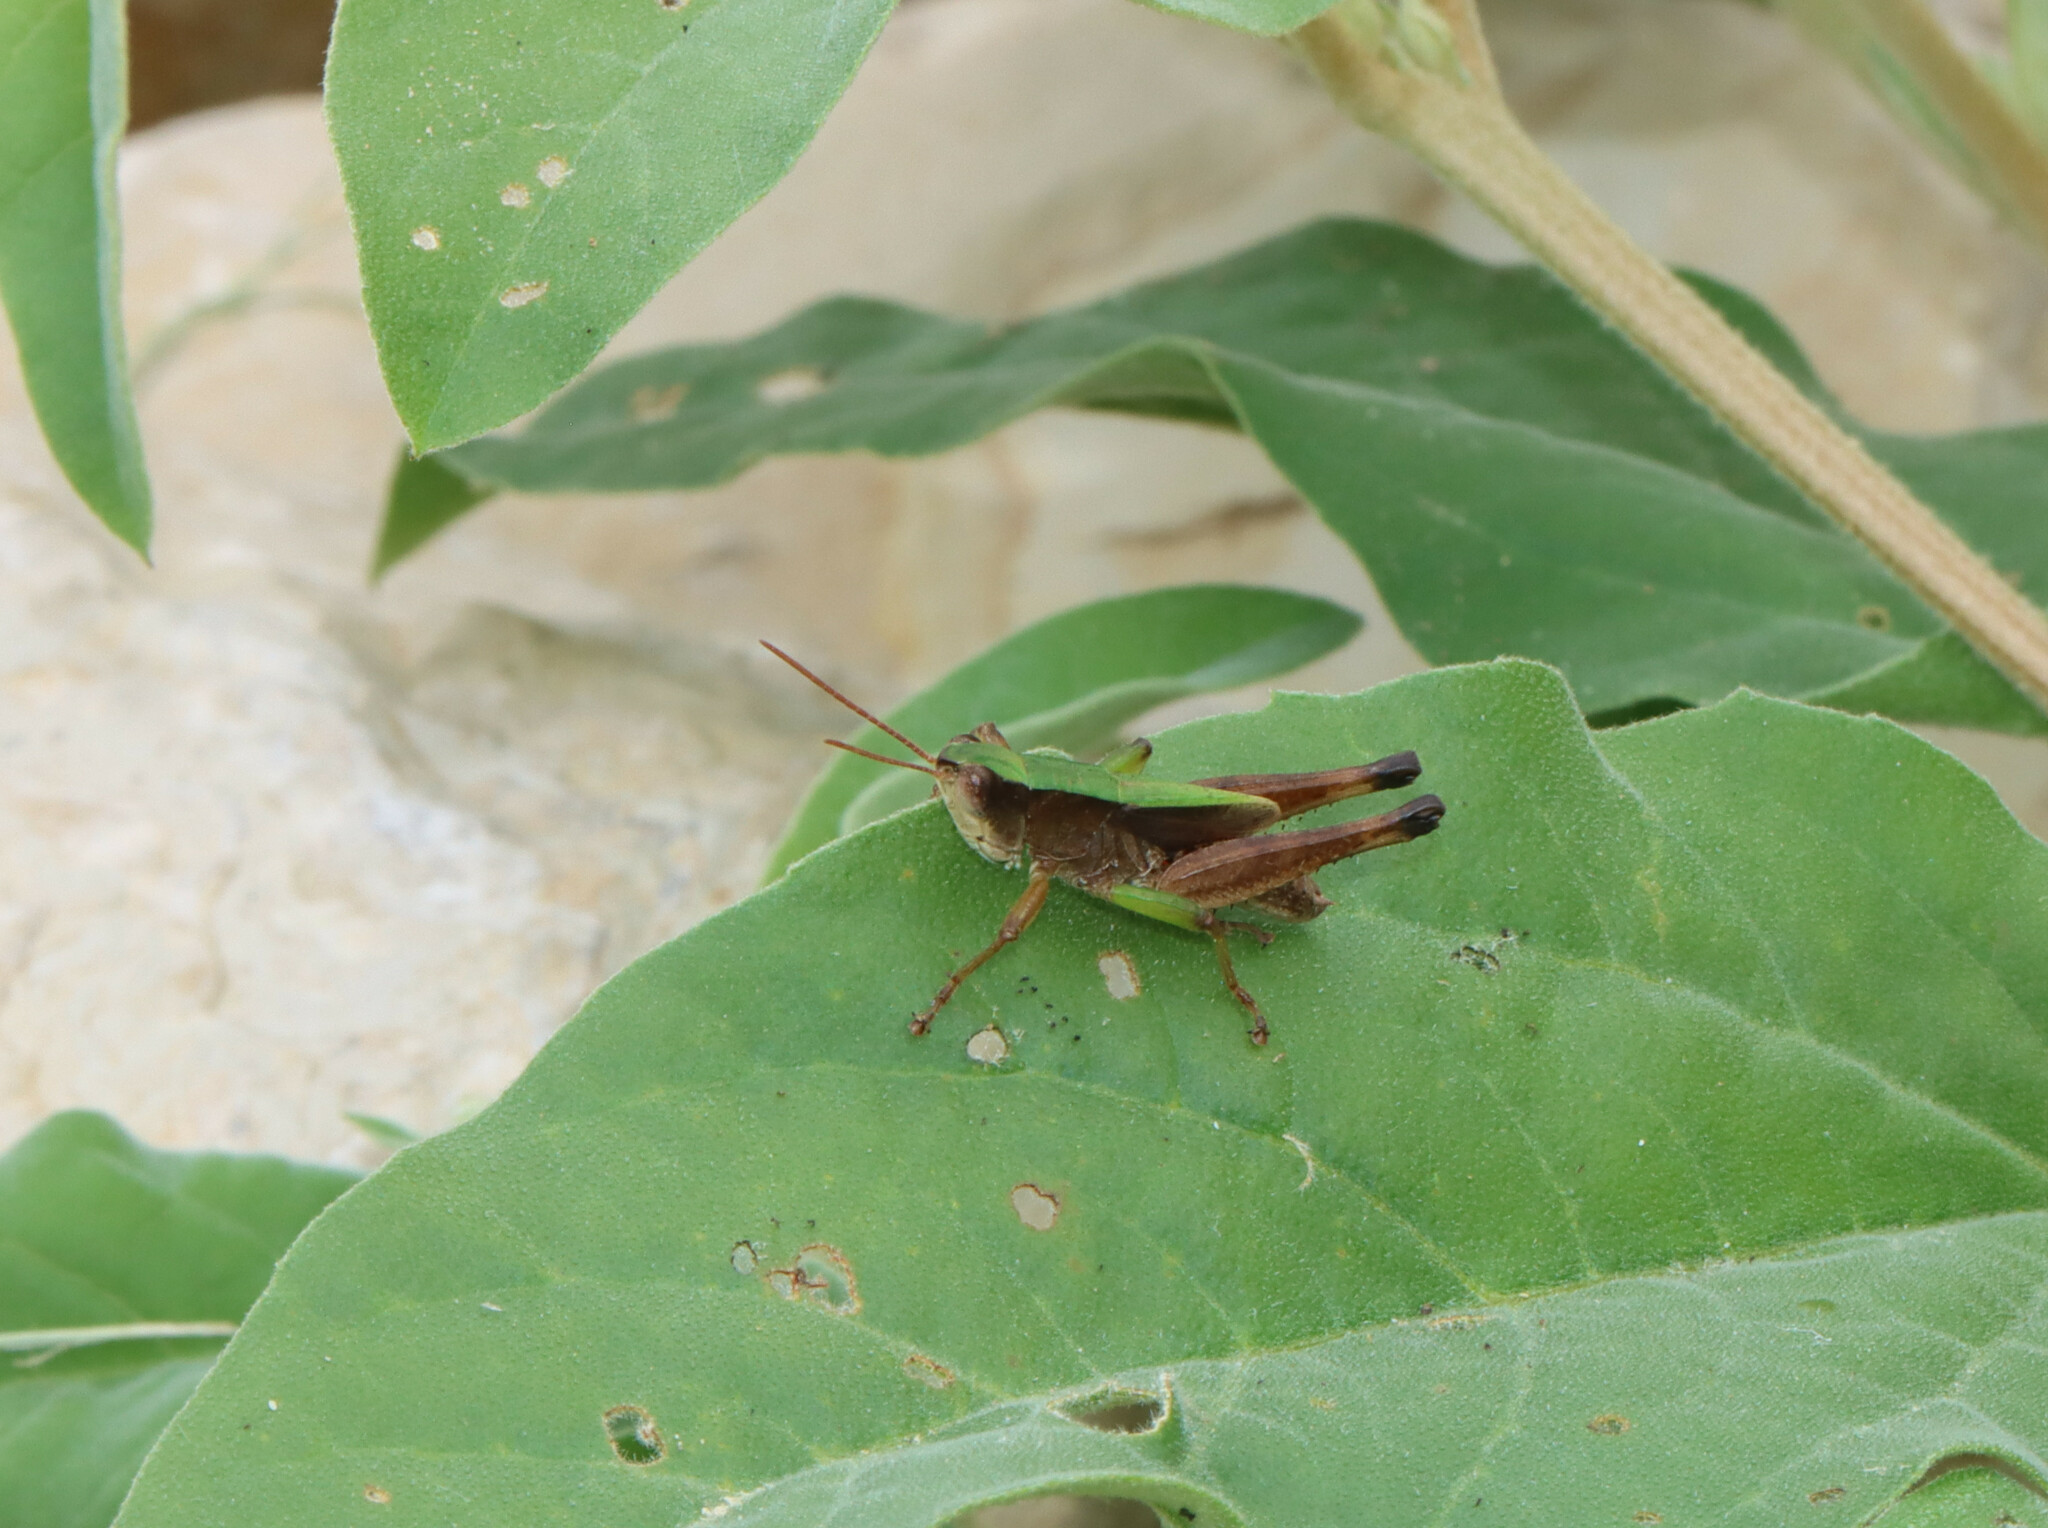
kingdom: Animalia
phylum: Arthropoda
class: Insecta
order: Orthoptera
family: Acrididae
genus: Dichromorpha
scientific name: Dichromorpha viridis
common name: Short-winged green grasshopper
